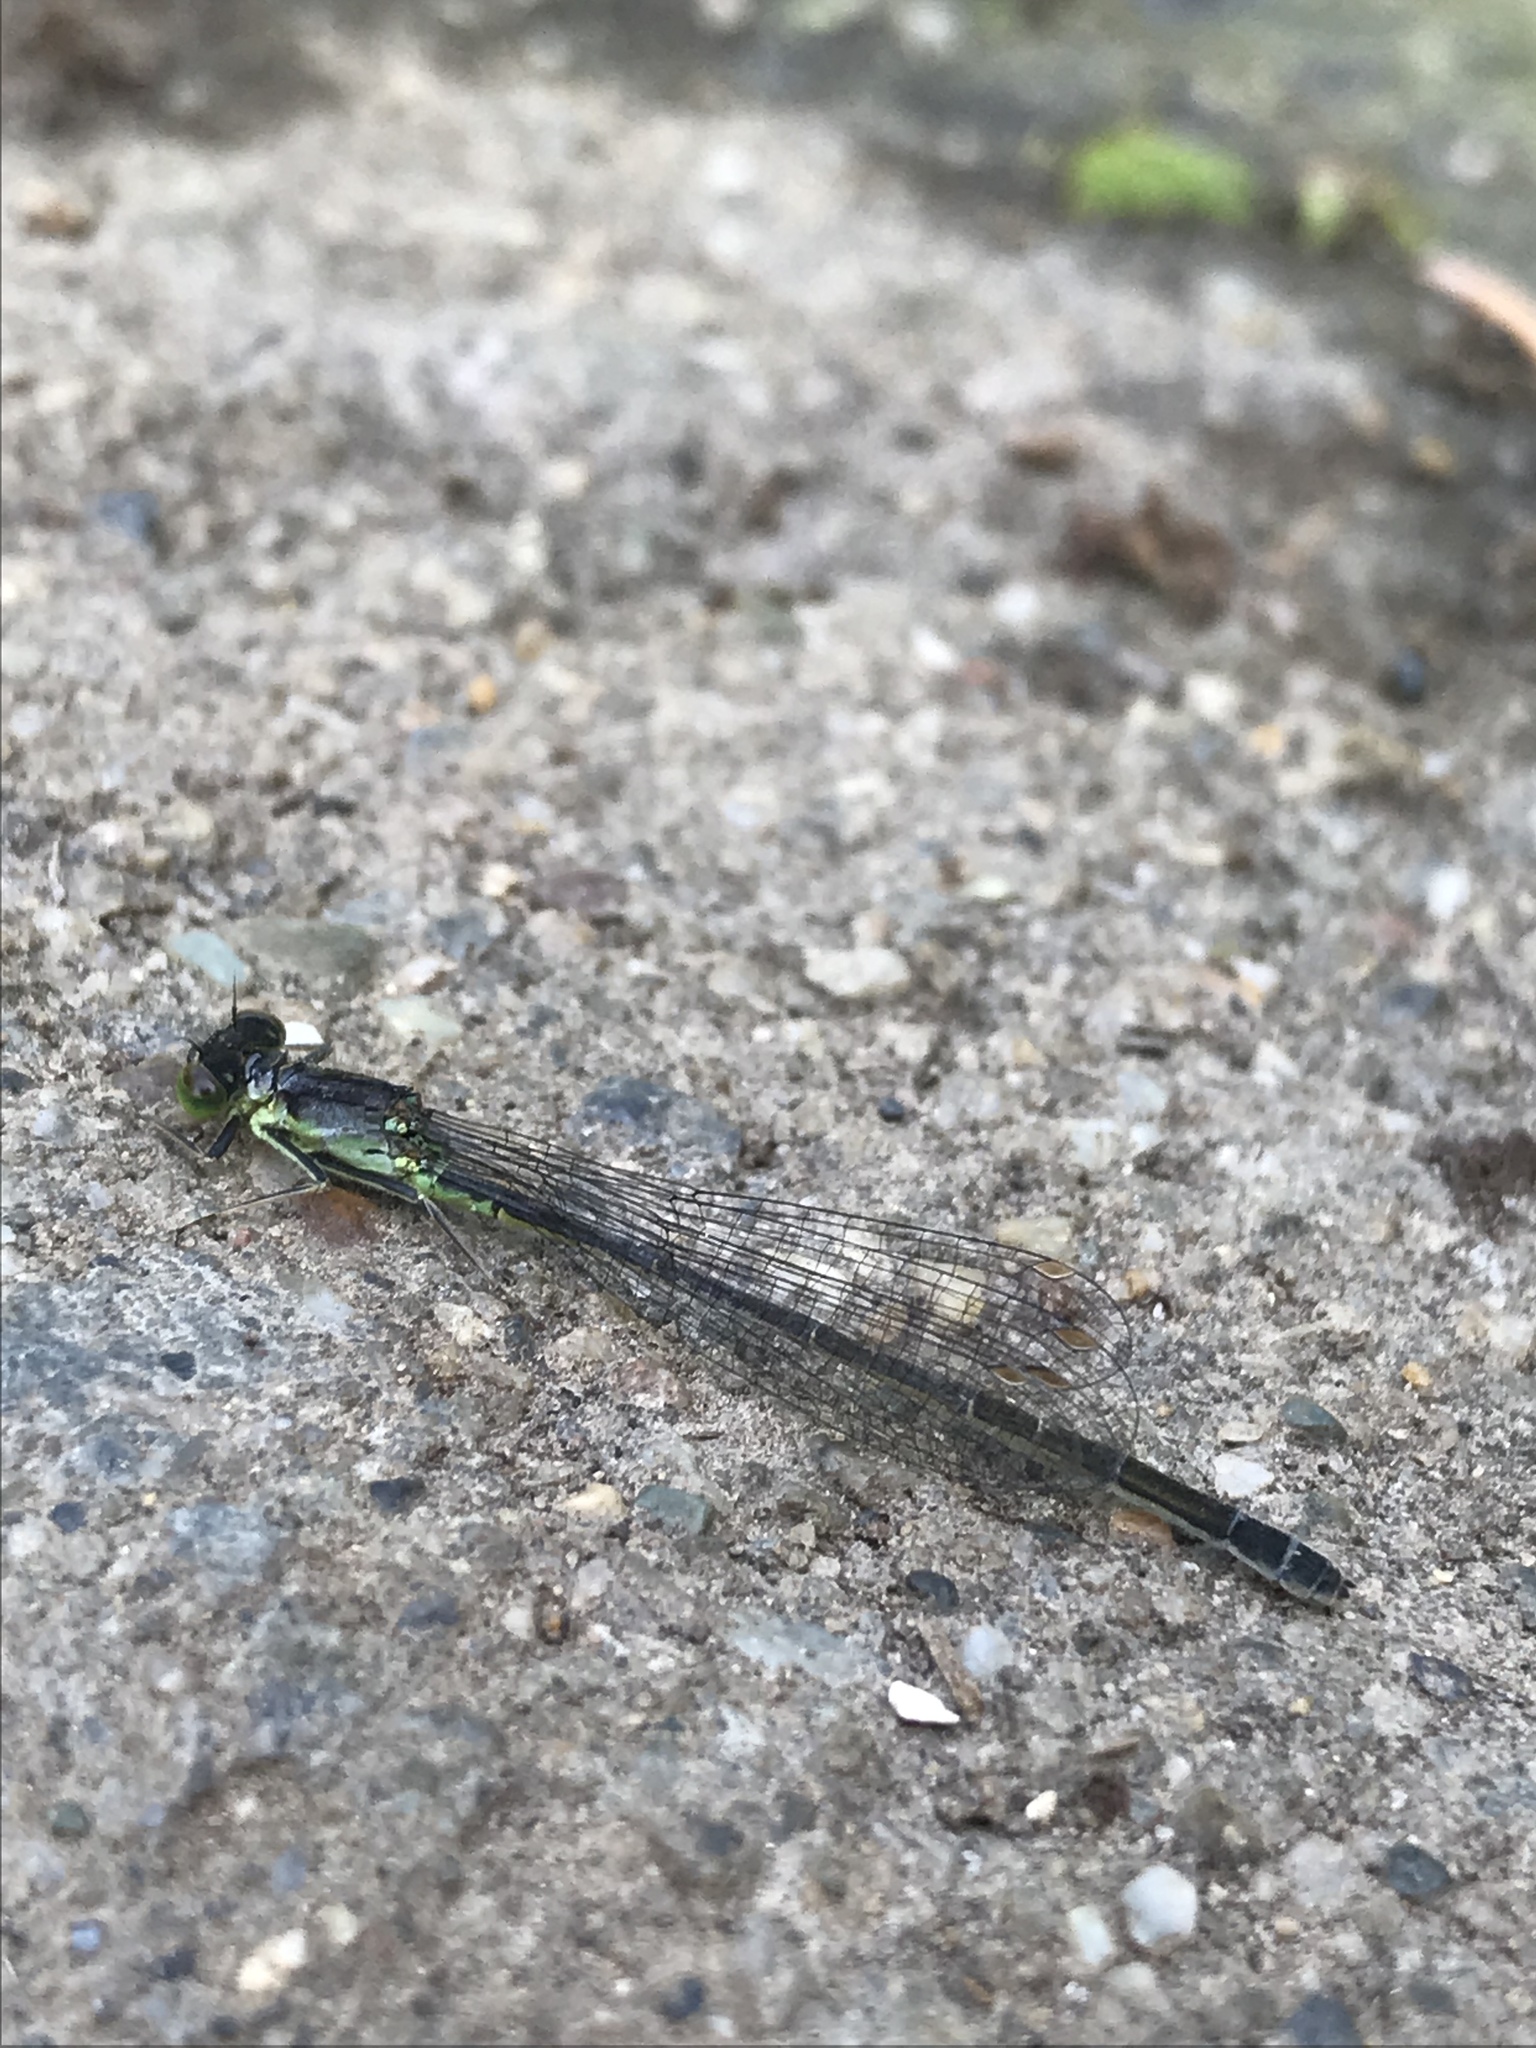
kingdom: Animalia
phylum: Arthropoda
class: Insecta
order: Odonata
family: Coenagrionidae
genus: Ischnura
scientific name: Ischnura cervula
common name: Pacific forktail
